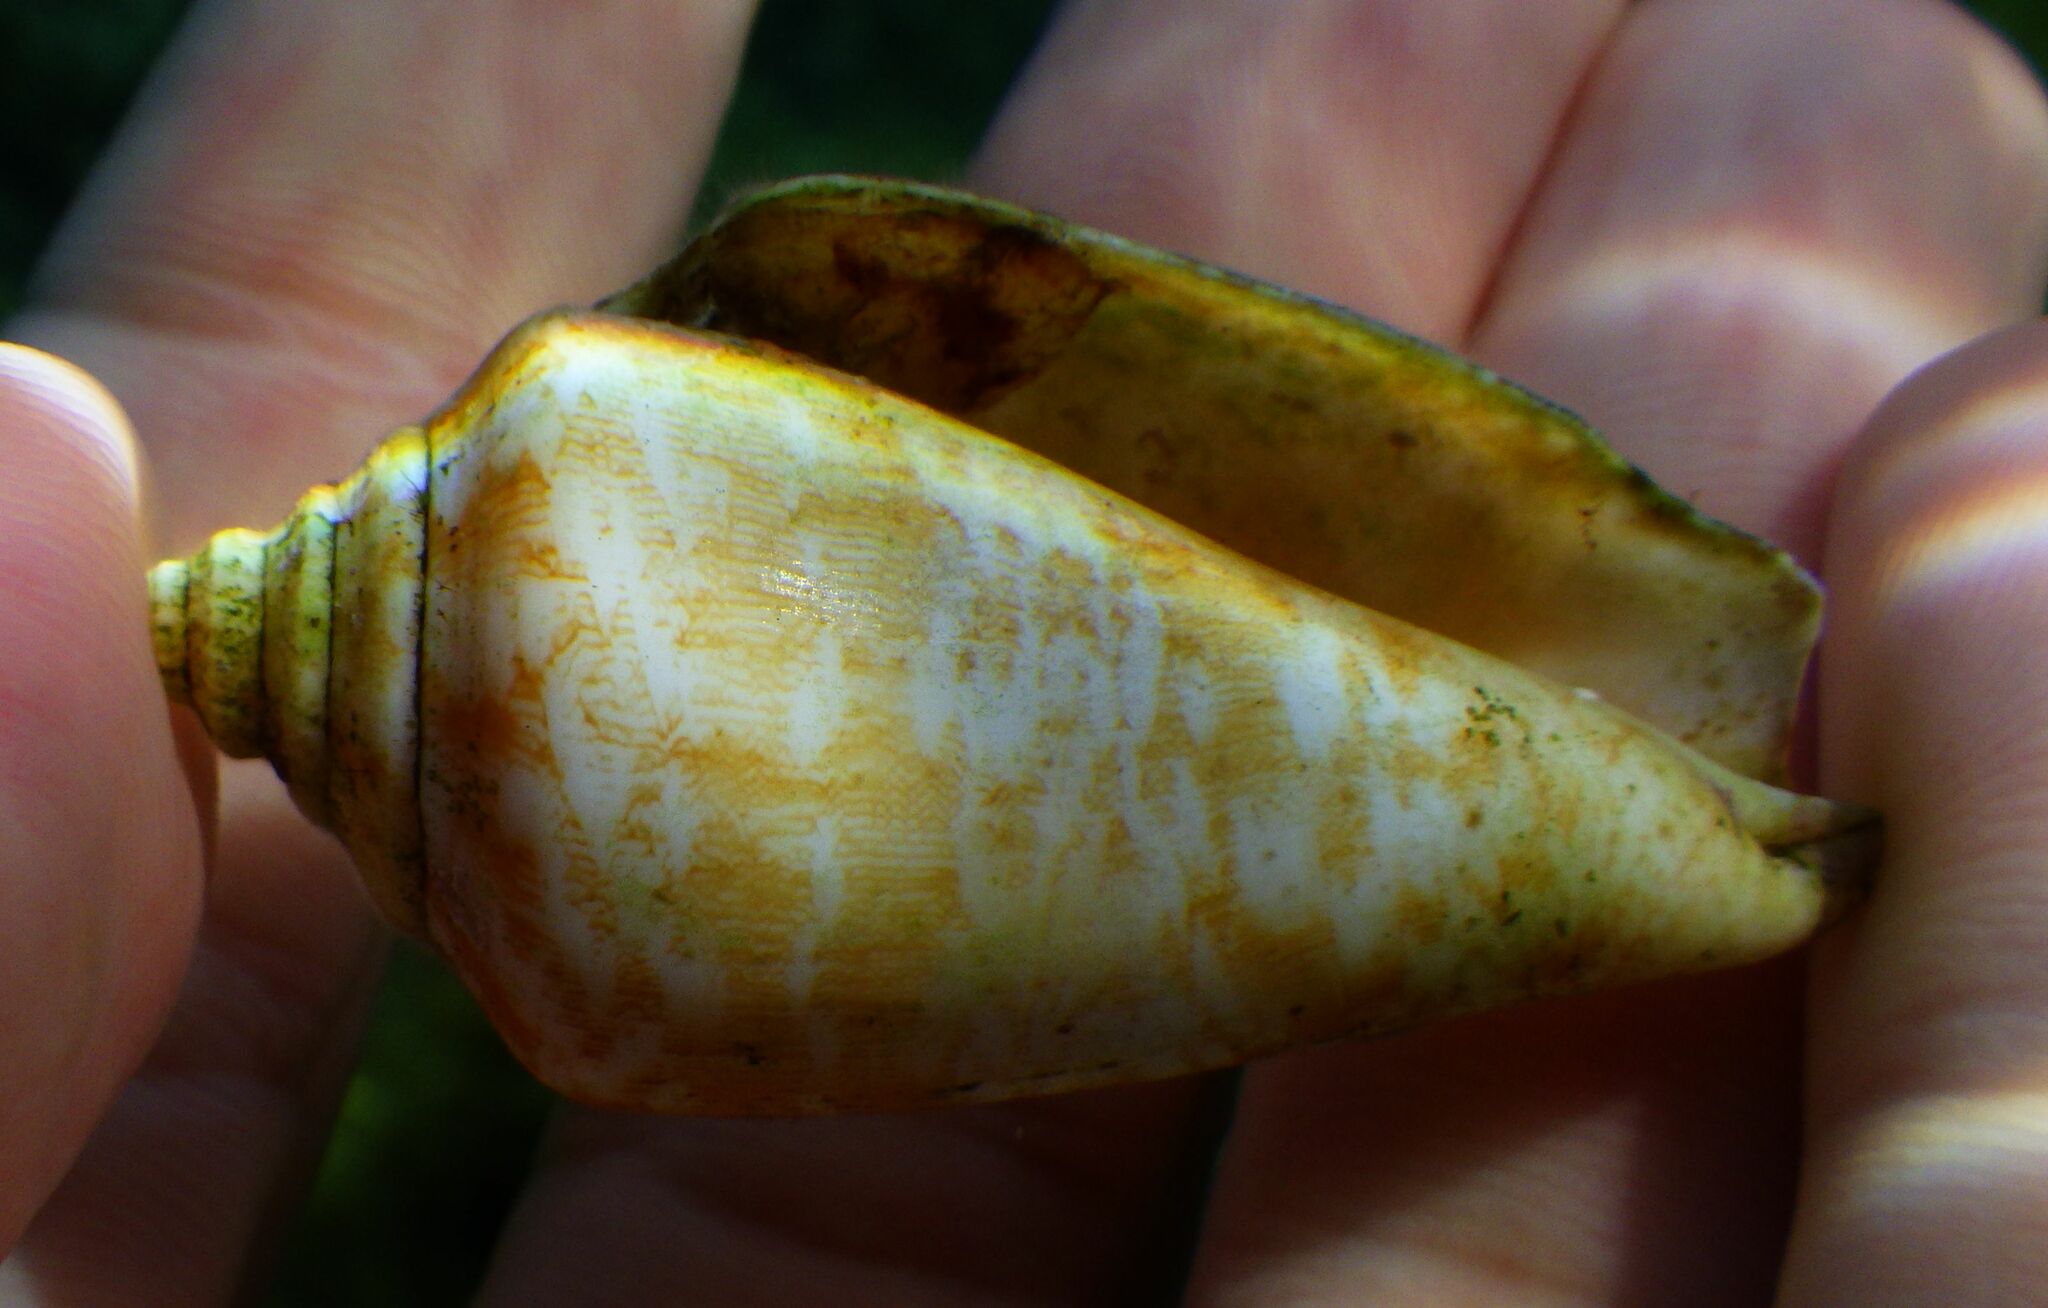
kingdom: Animalia
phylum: Mollusca
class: Gastropoda
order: Littorinimorpha
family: Strombidae
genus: Conomurex
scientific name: Conomurex persicus
